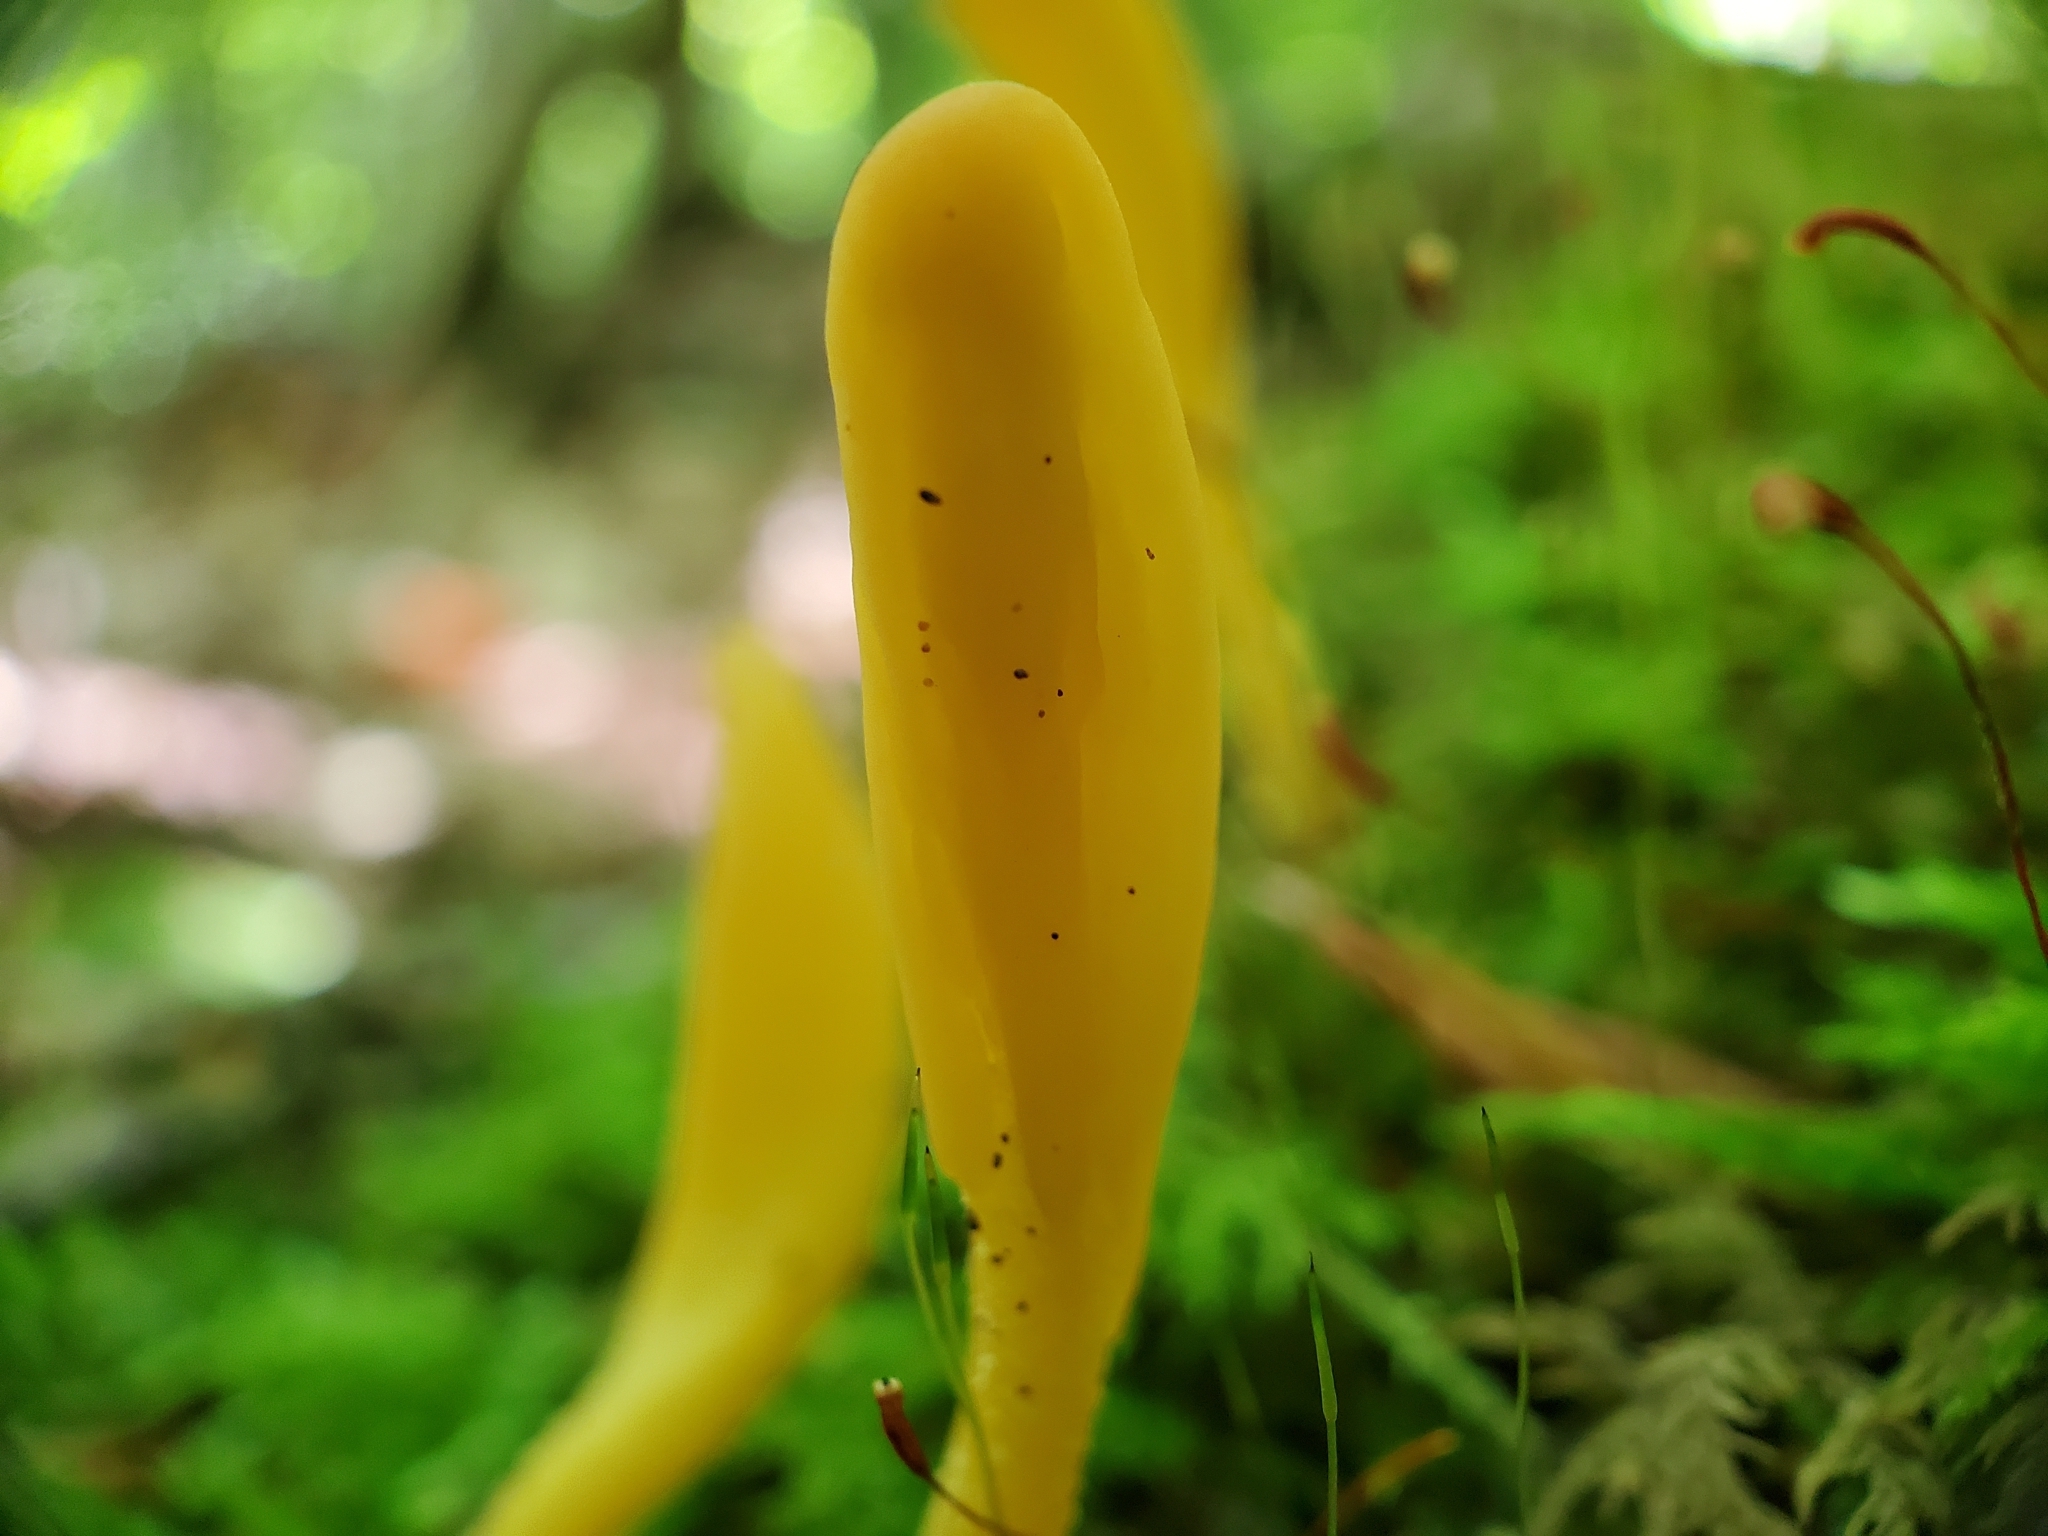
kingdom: Fungi
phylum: Ascomycota
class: Leotiomycetes
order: Leotiales
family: Leotiaceae
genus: Microglossum
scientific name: Microglossum rufum
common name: Orange earthtongue
